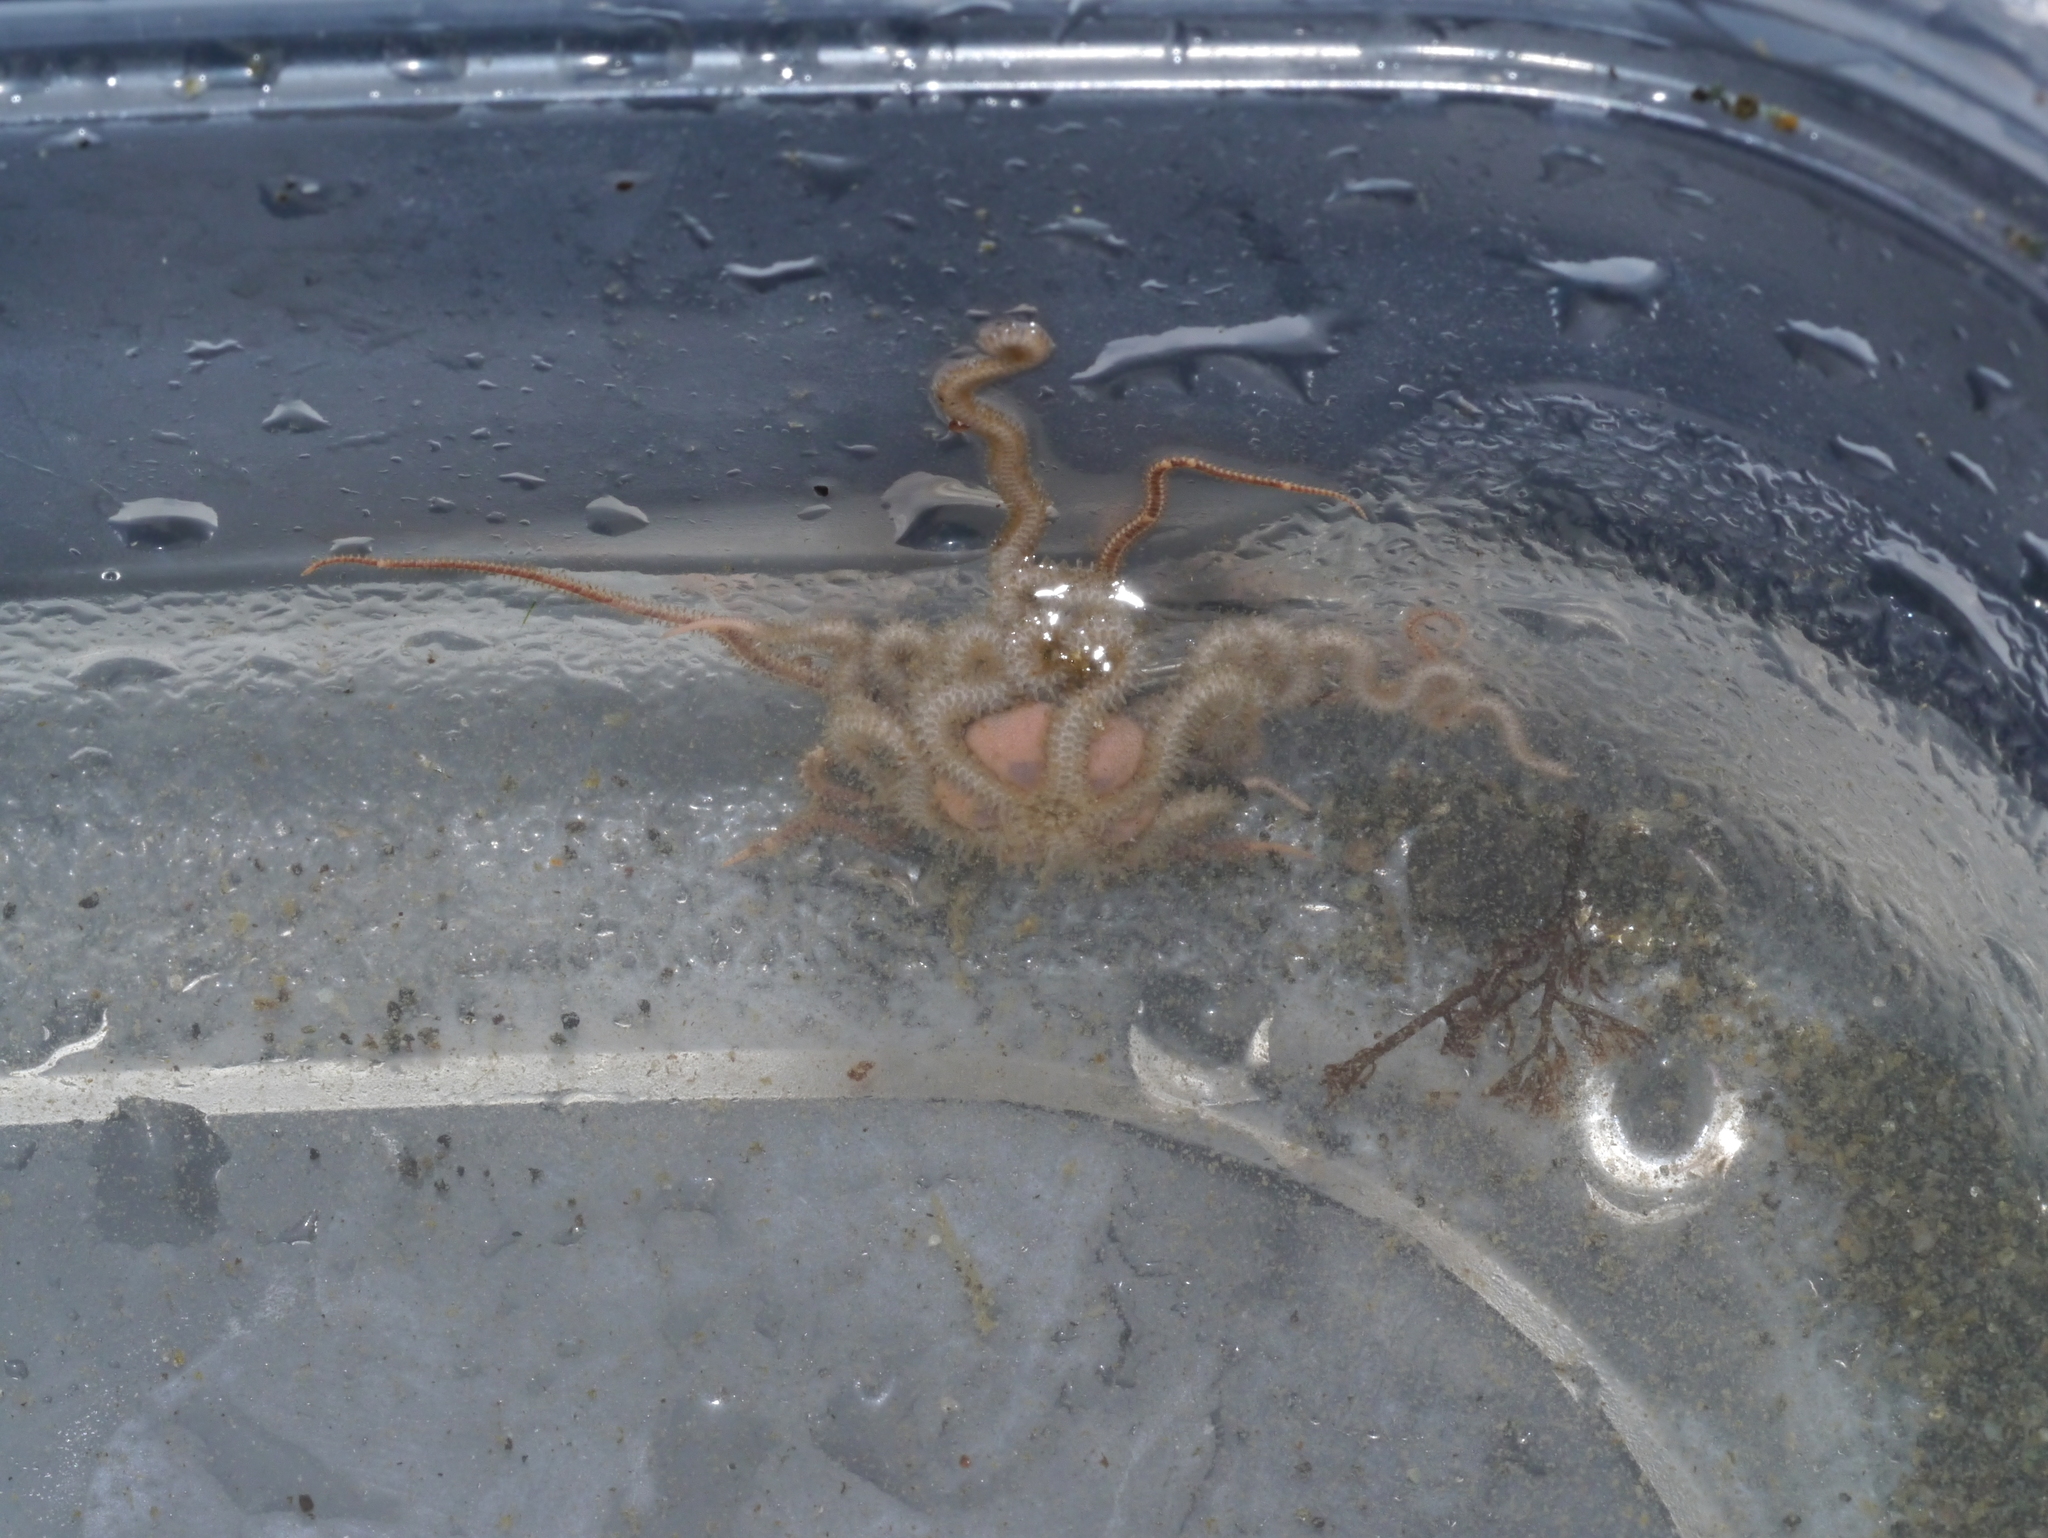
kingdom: Animalia
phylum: Echinodermata
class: Ophiuroidea
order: Amphilepidida
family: Amphiuridae
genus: Amphiodia
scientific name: Amphiodia occidentalis
